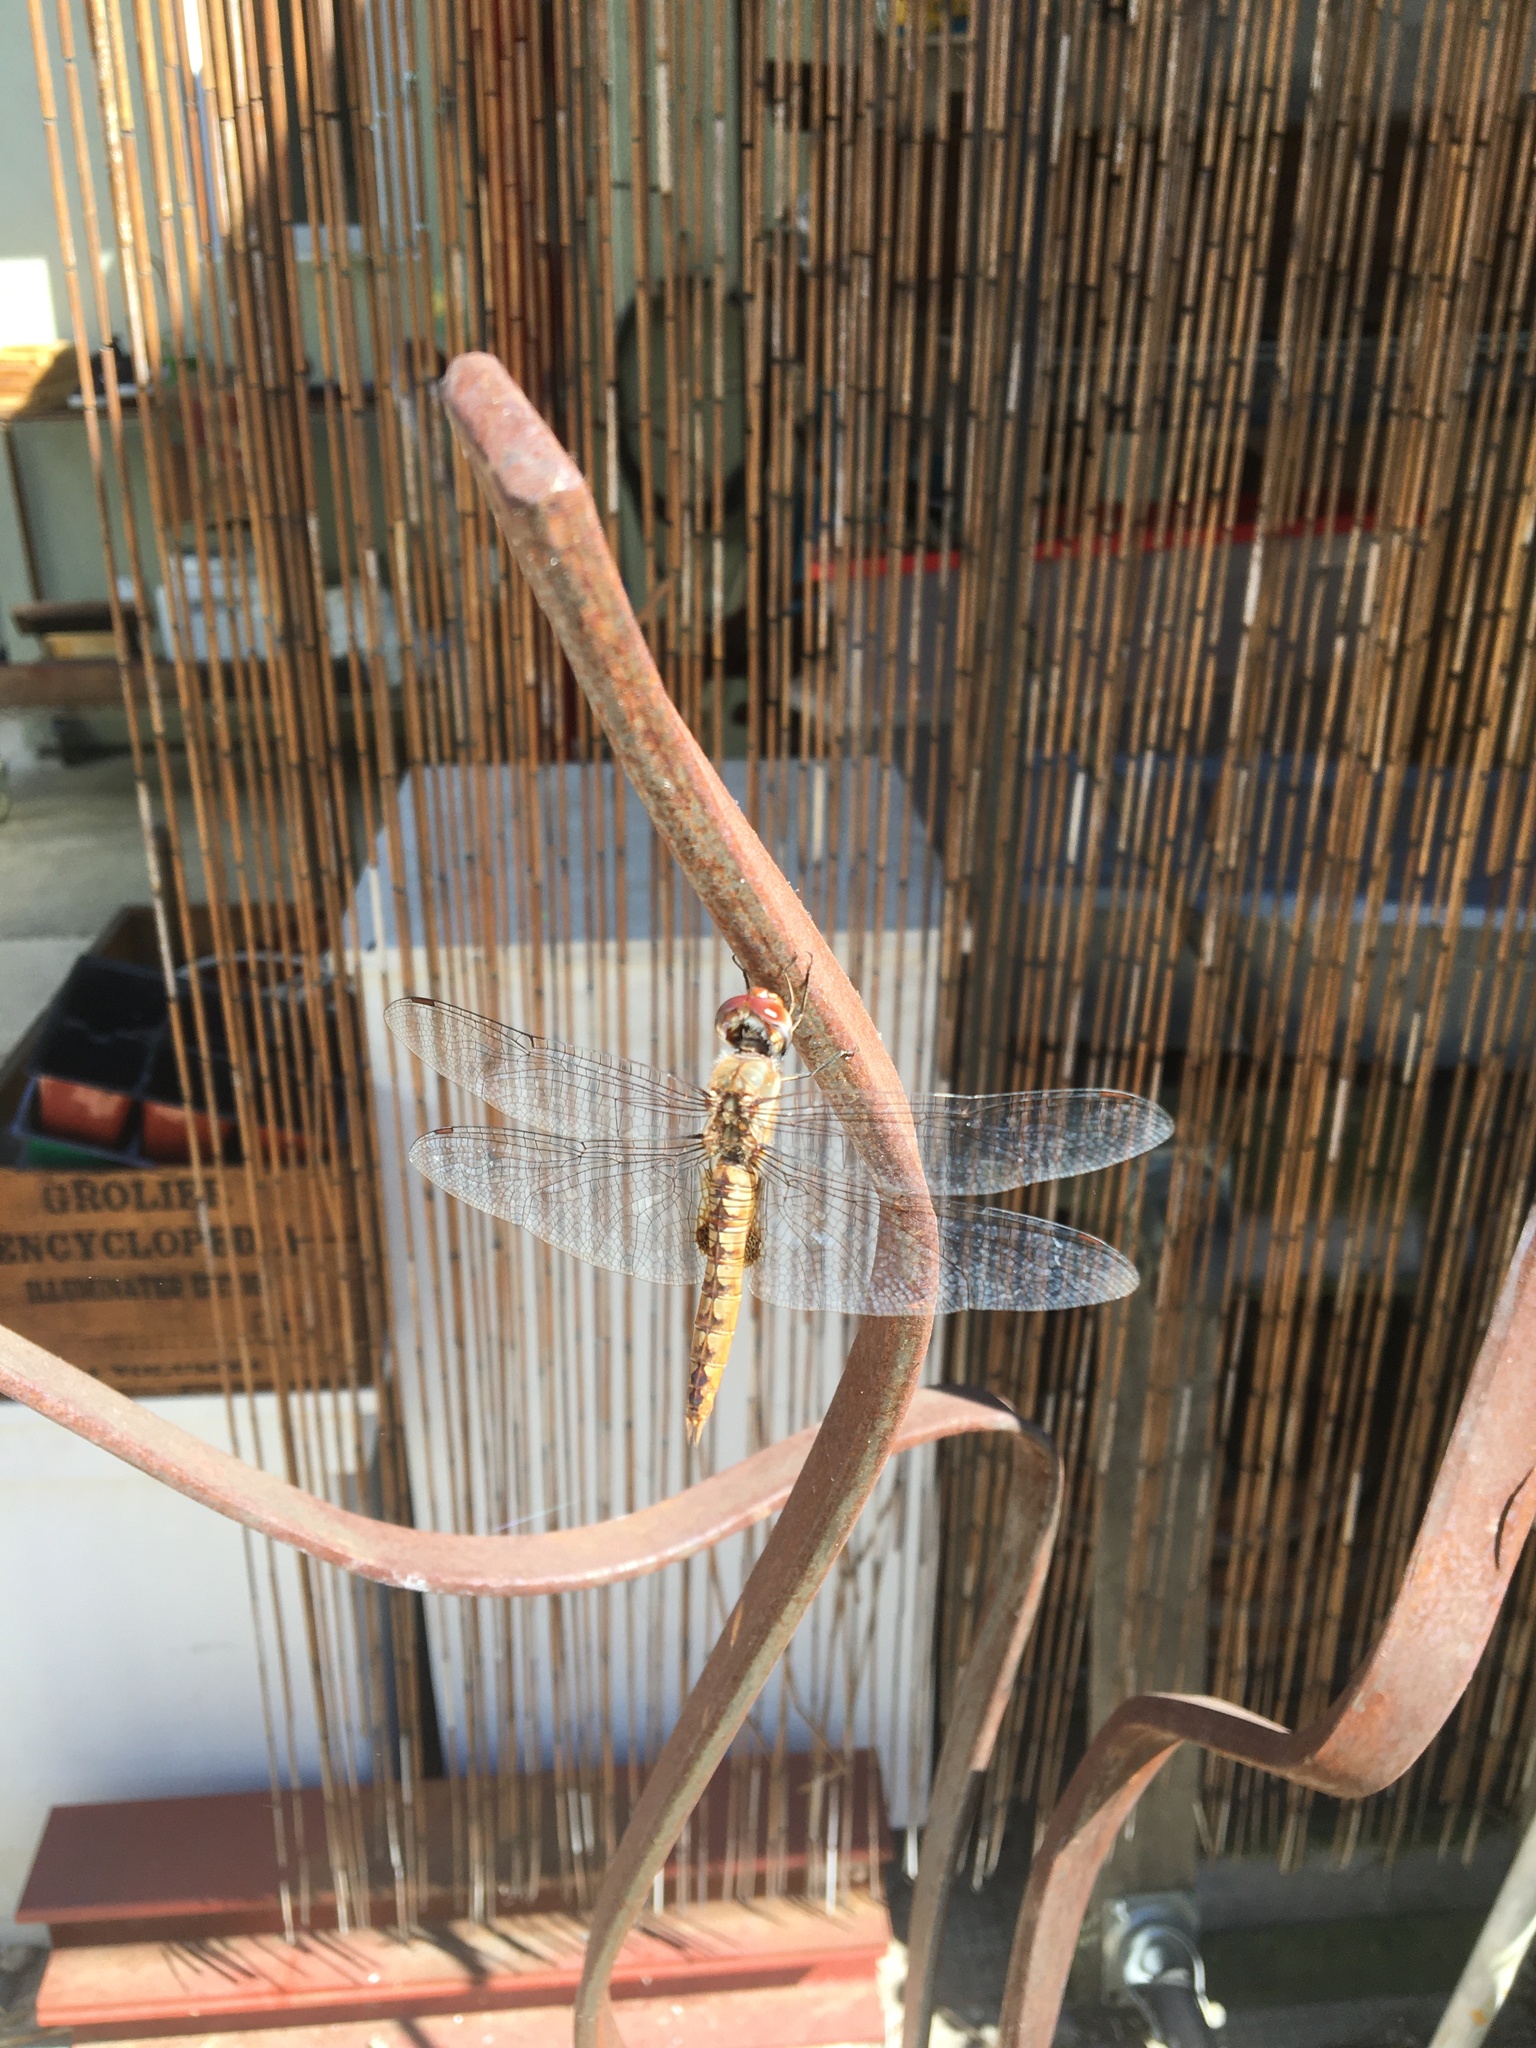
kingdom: Animalia
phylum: Arthropoda
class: Insecta
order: Odonata
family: Libellulidae
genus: Pantala
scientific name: Pantala hymenaea
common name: Spot-winged glider
